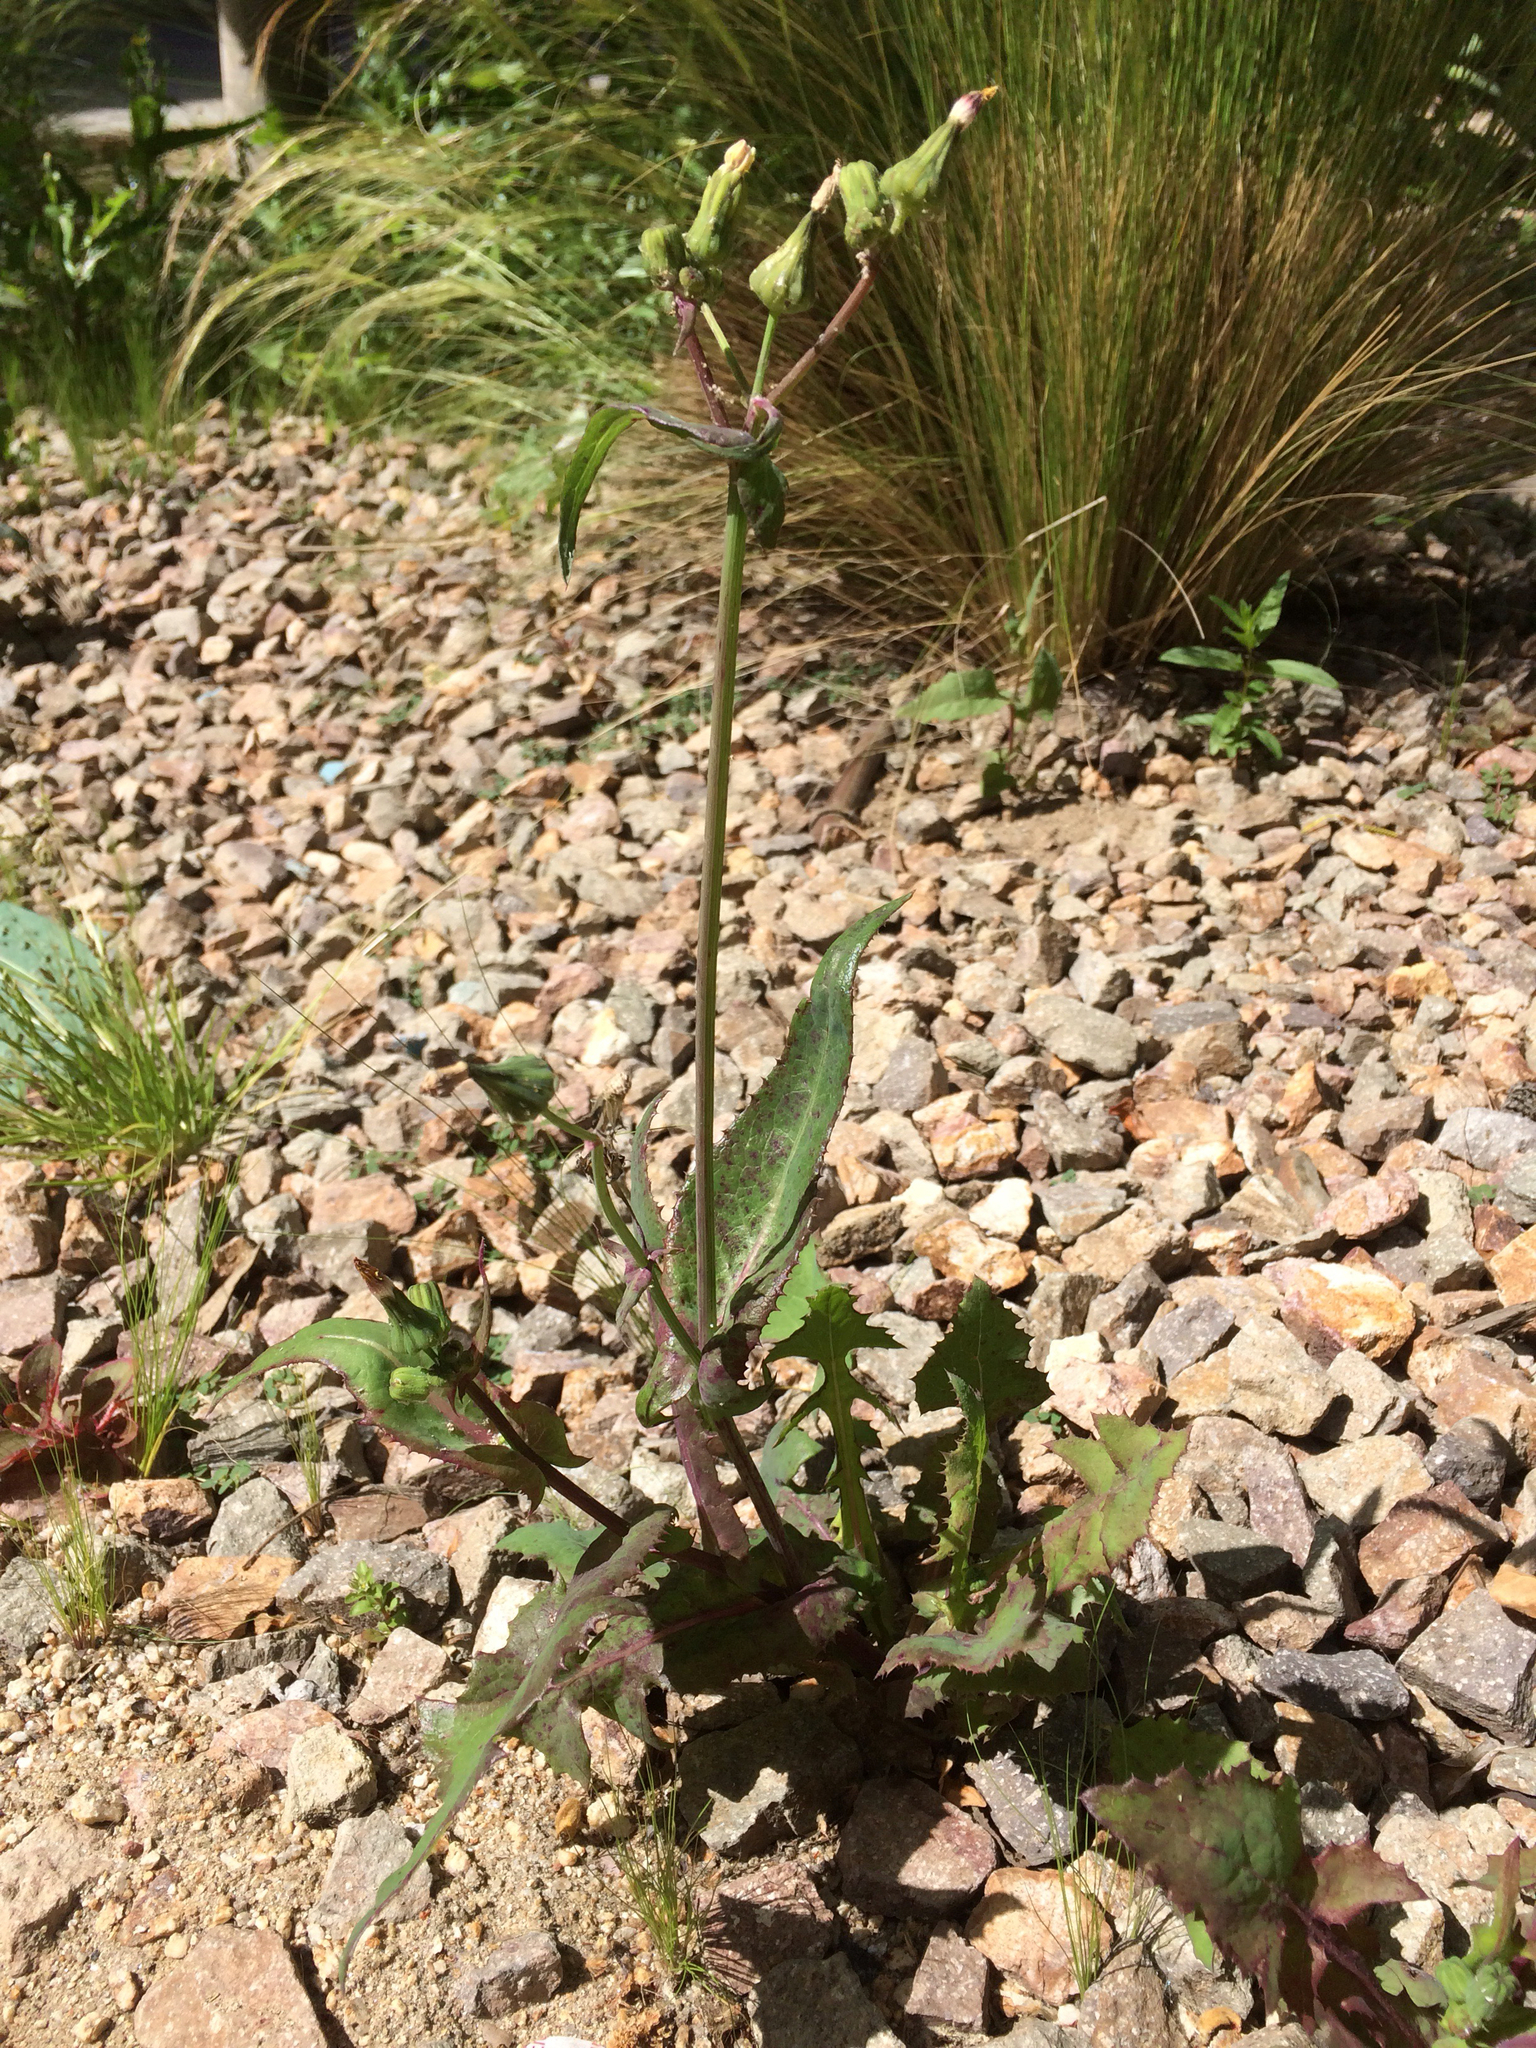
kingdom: Plantae
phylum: Tracheophyta
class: Magnoliopsida
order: Asterales
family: Asteraceae
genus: Sonchus
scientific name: Sonchus oleraceus
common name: Common sowthistle
